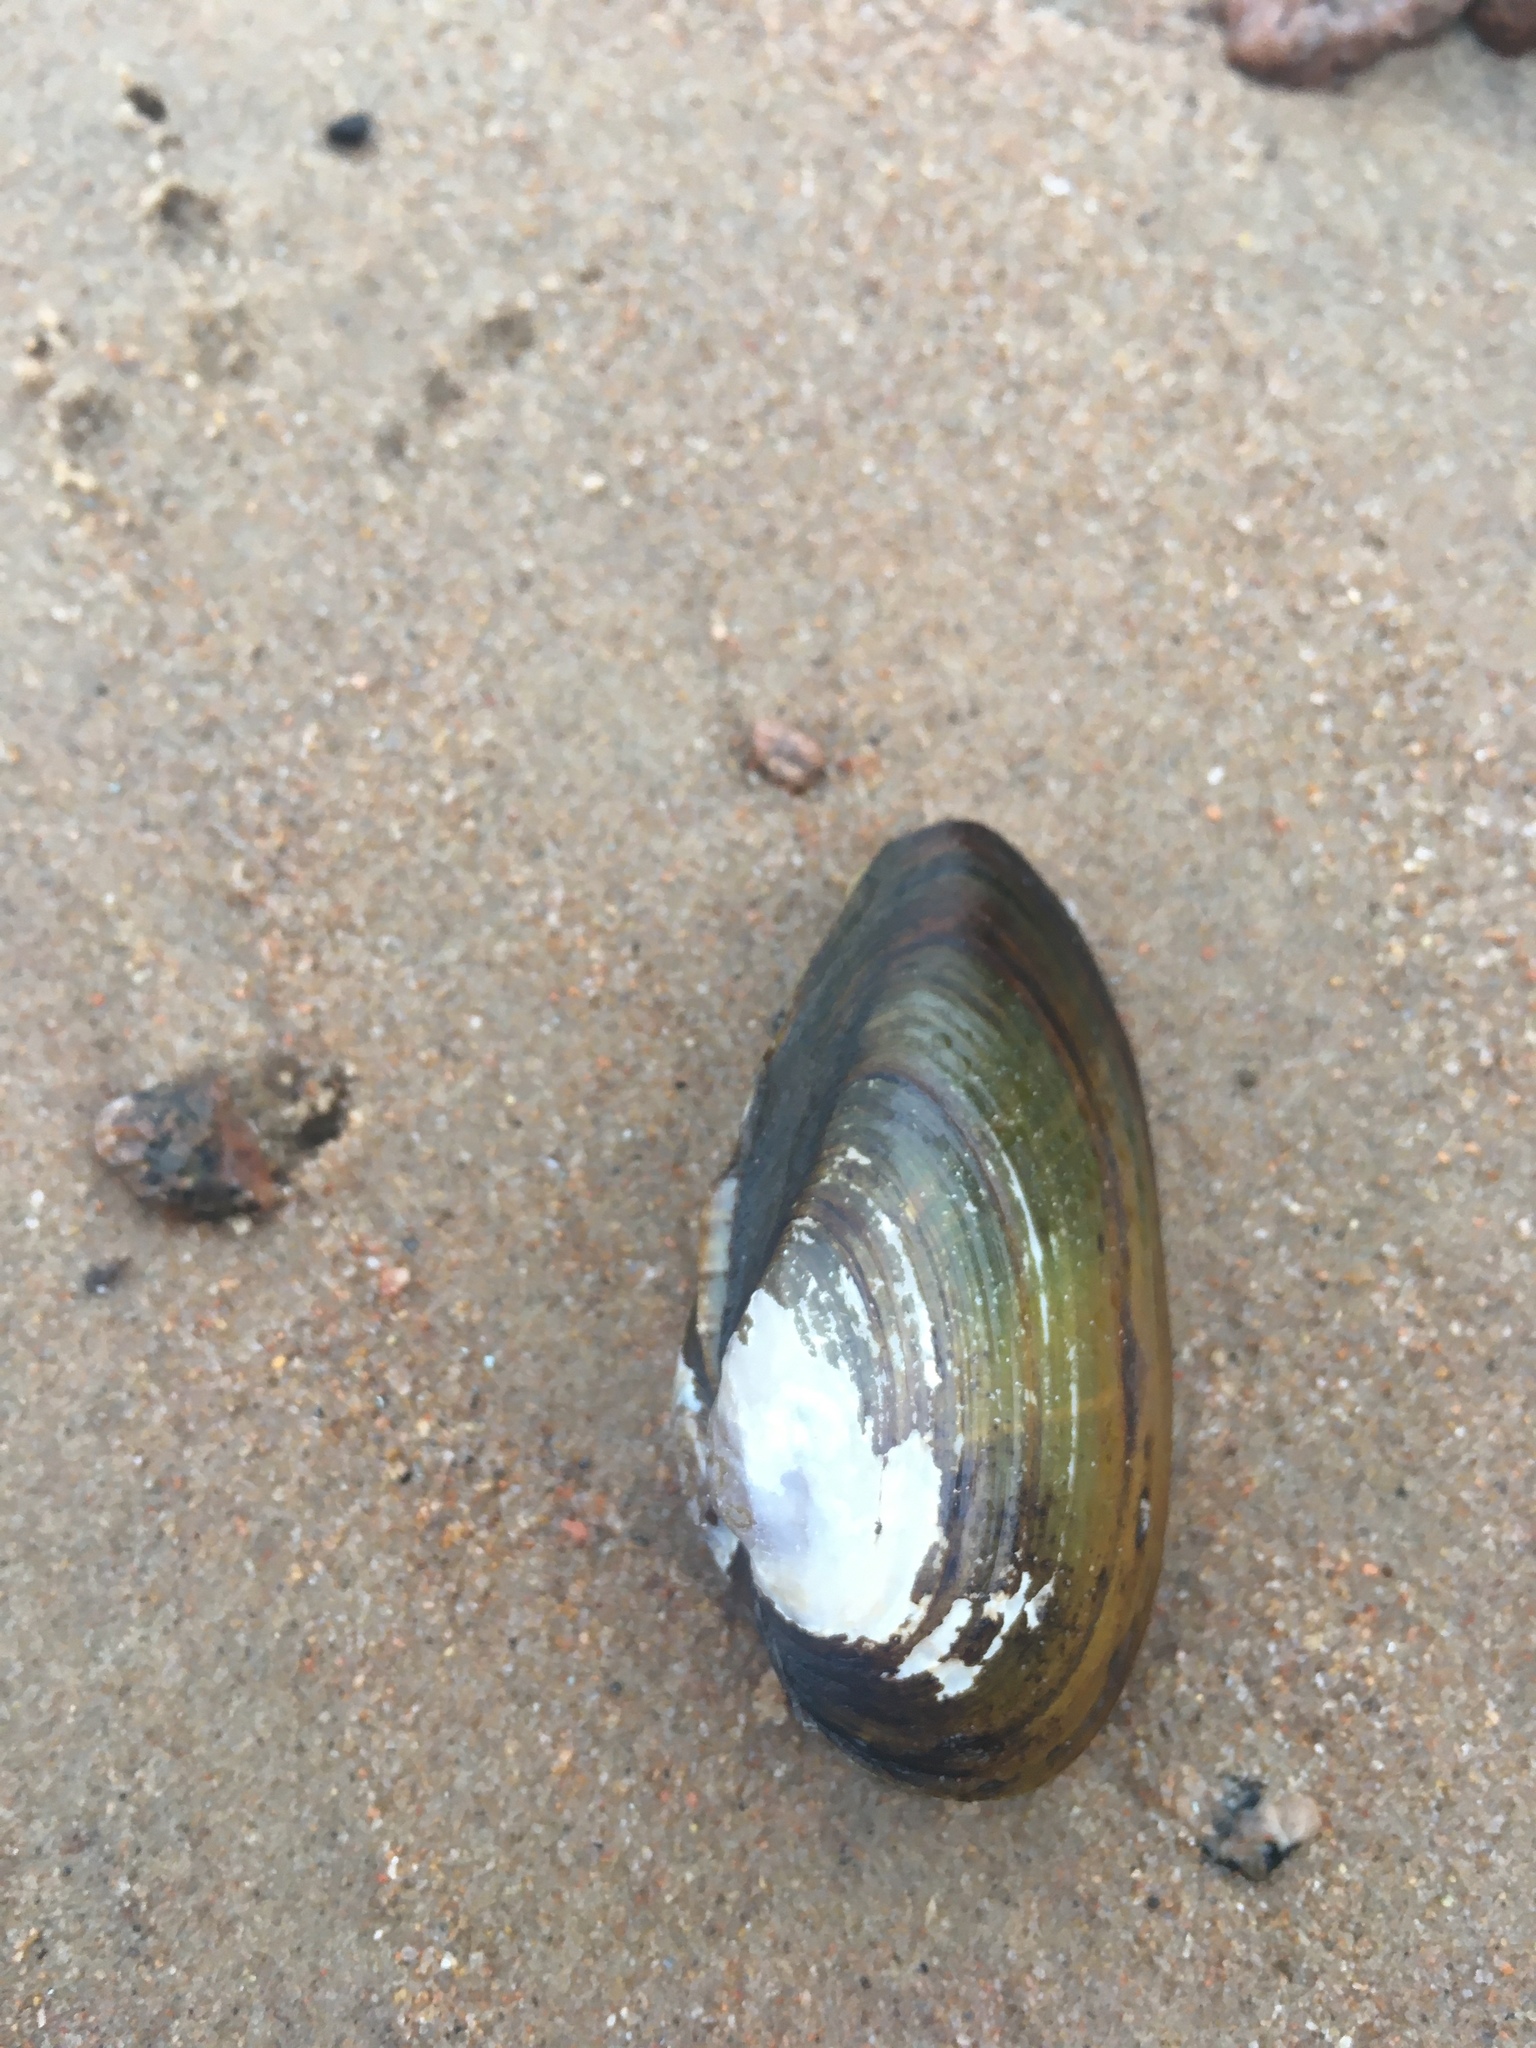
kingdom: Animalia
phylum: Mollusca
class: Bivalvia
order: Unionida
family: Unionidae
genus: Unio
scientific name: Unio tumidus
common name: Swollen river mussel
